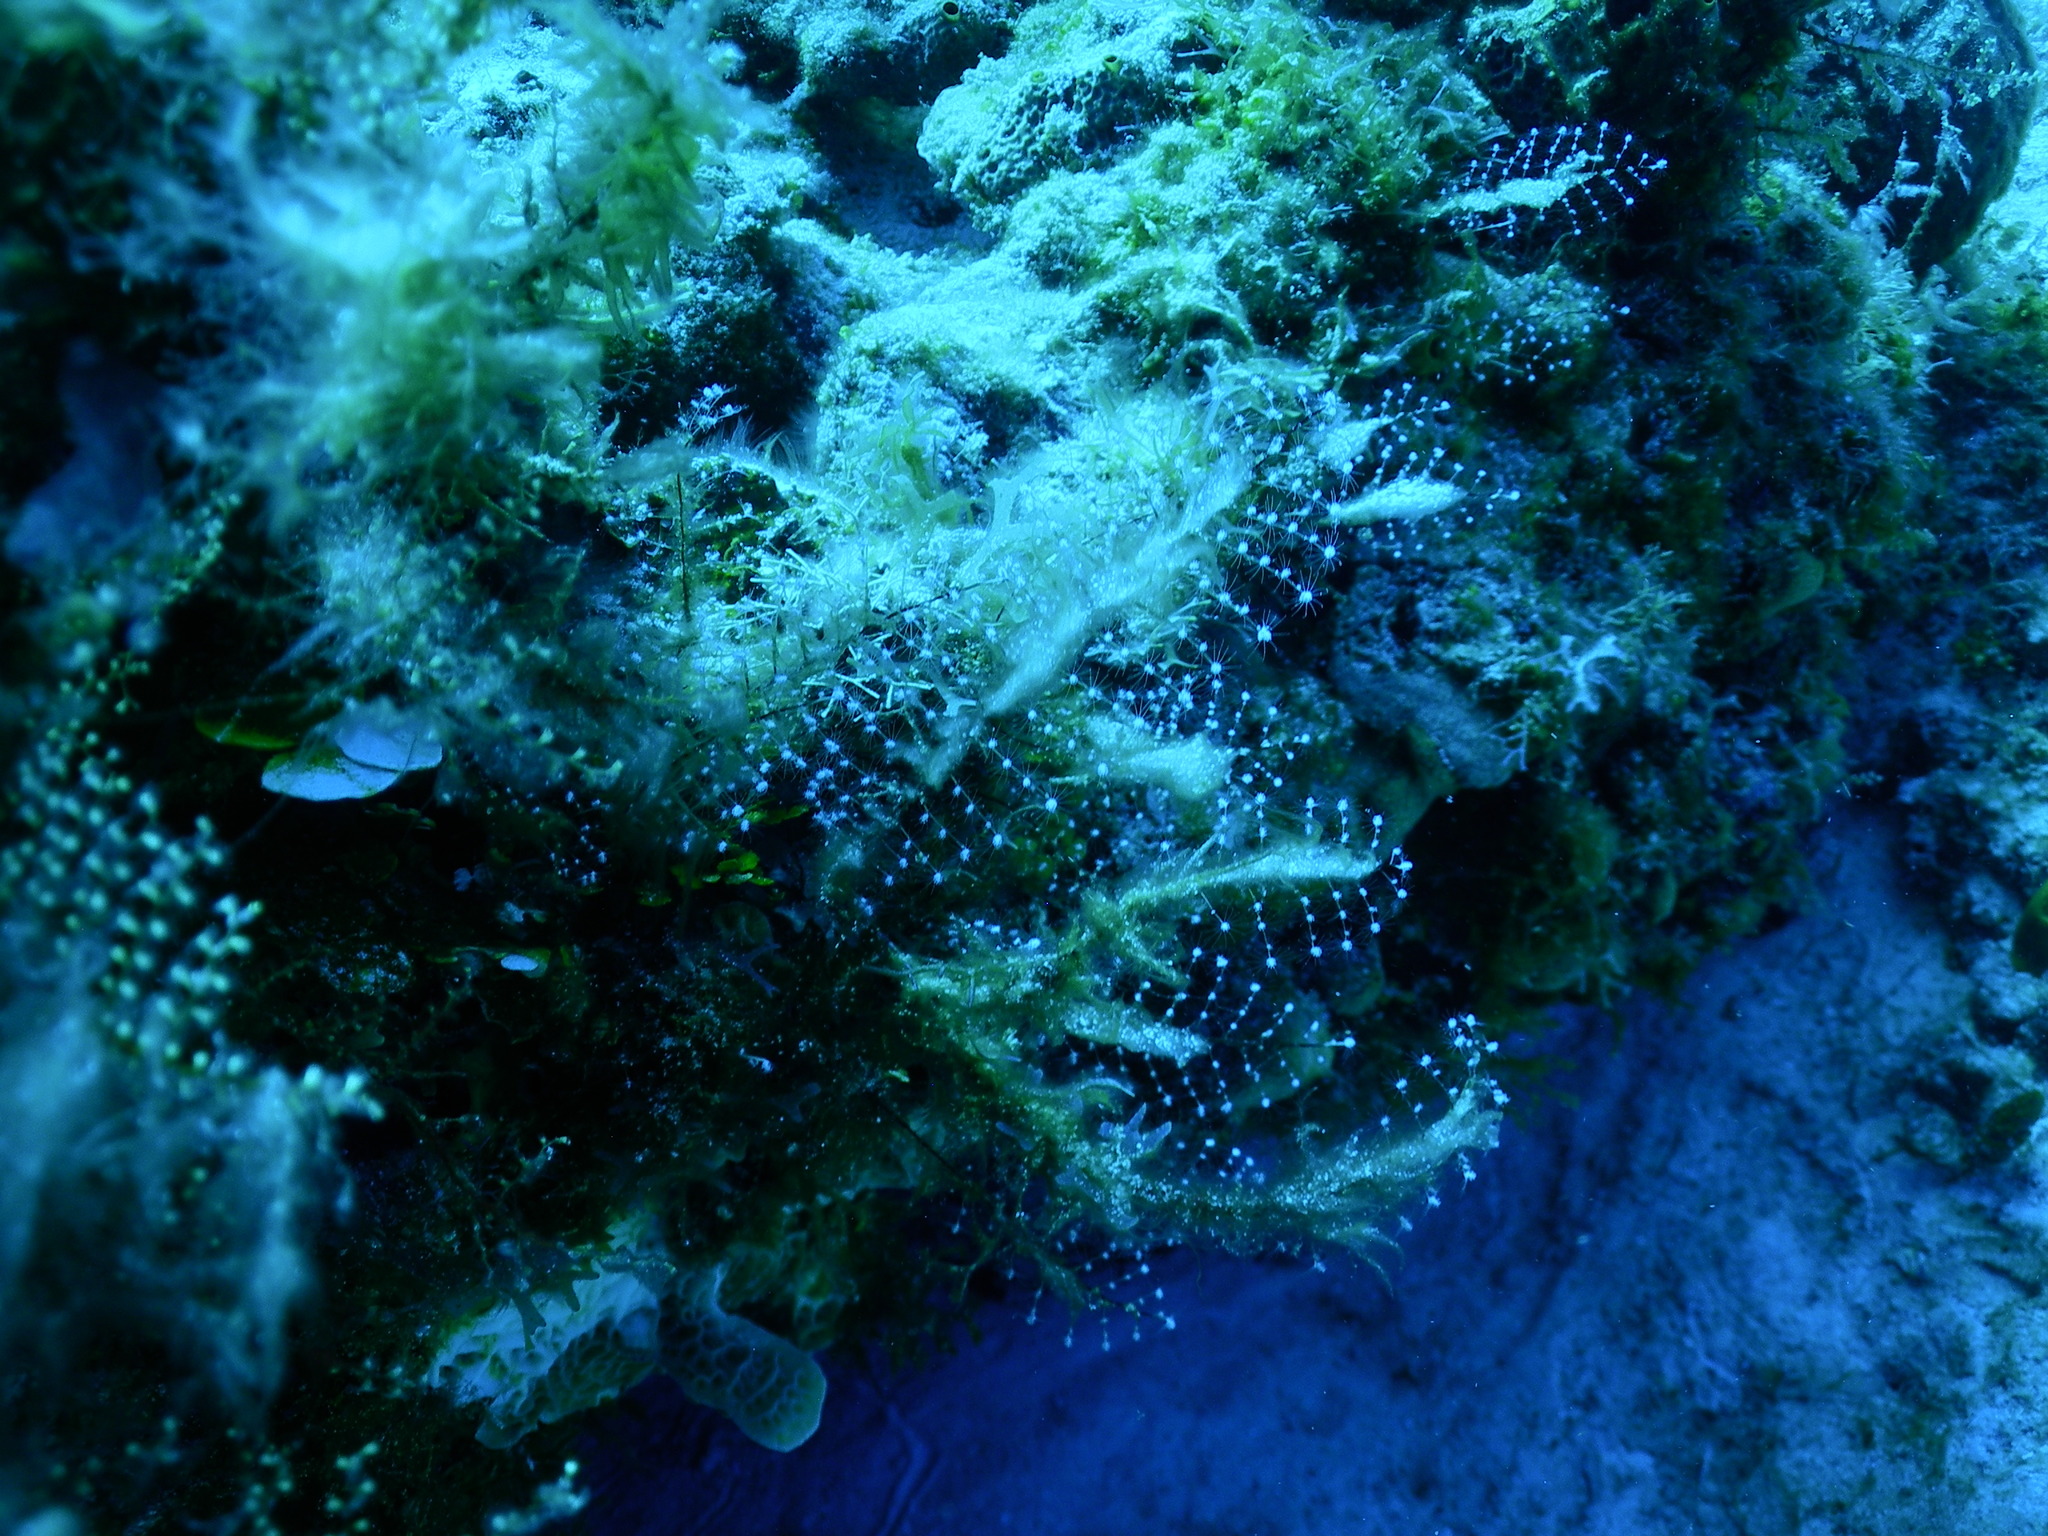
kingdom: Animalia
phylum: Cnidaria
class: Hydrozoa
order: Anthoathecata
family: Pennariidae
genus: Pennaria
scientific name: Pennaria disticha
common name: Feather hydroid
